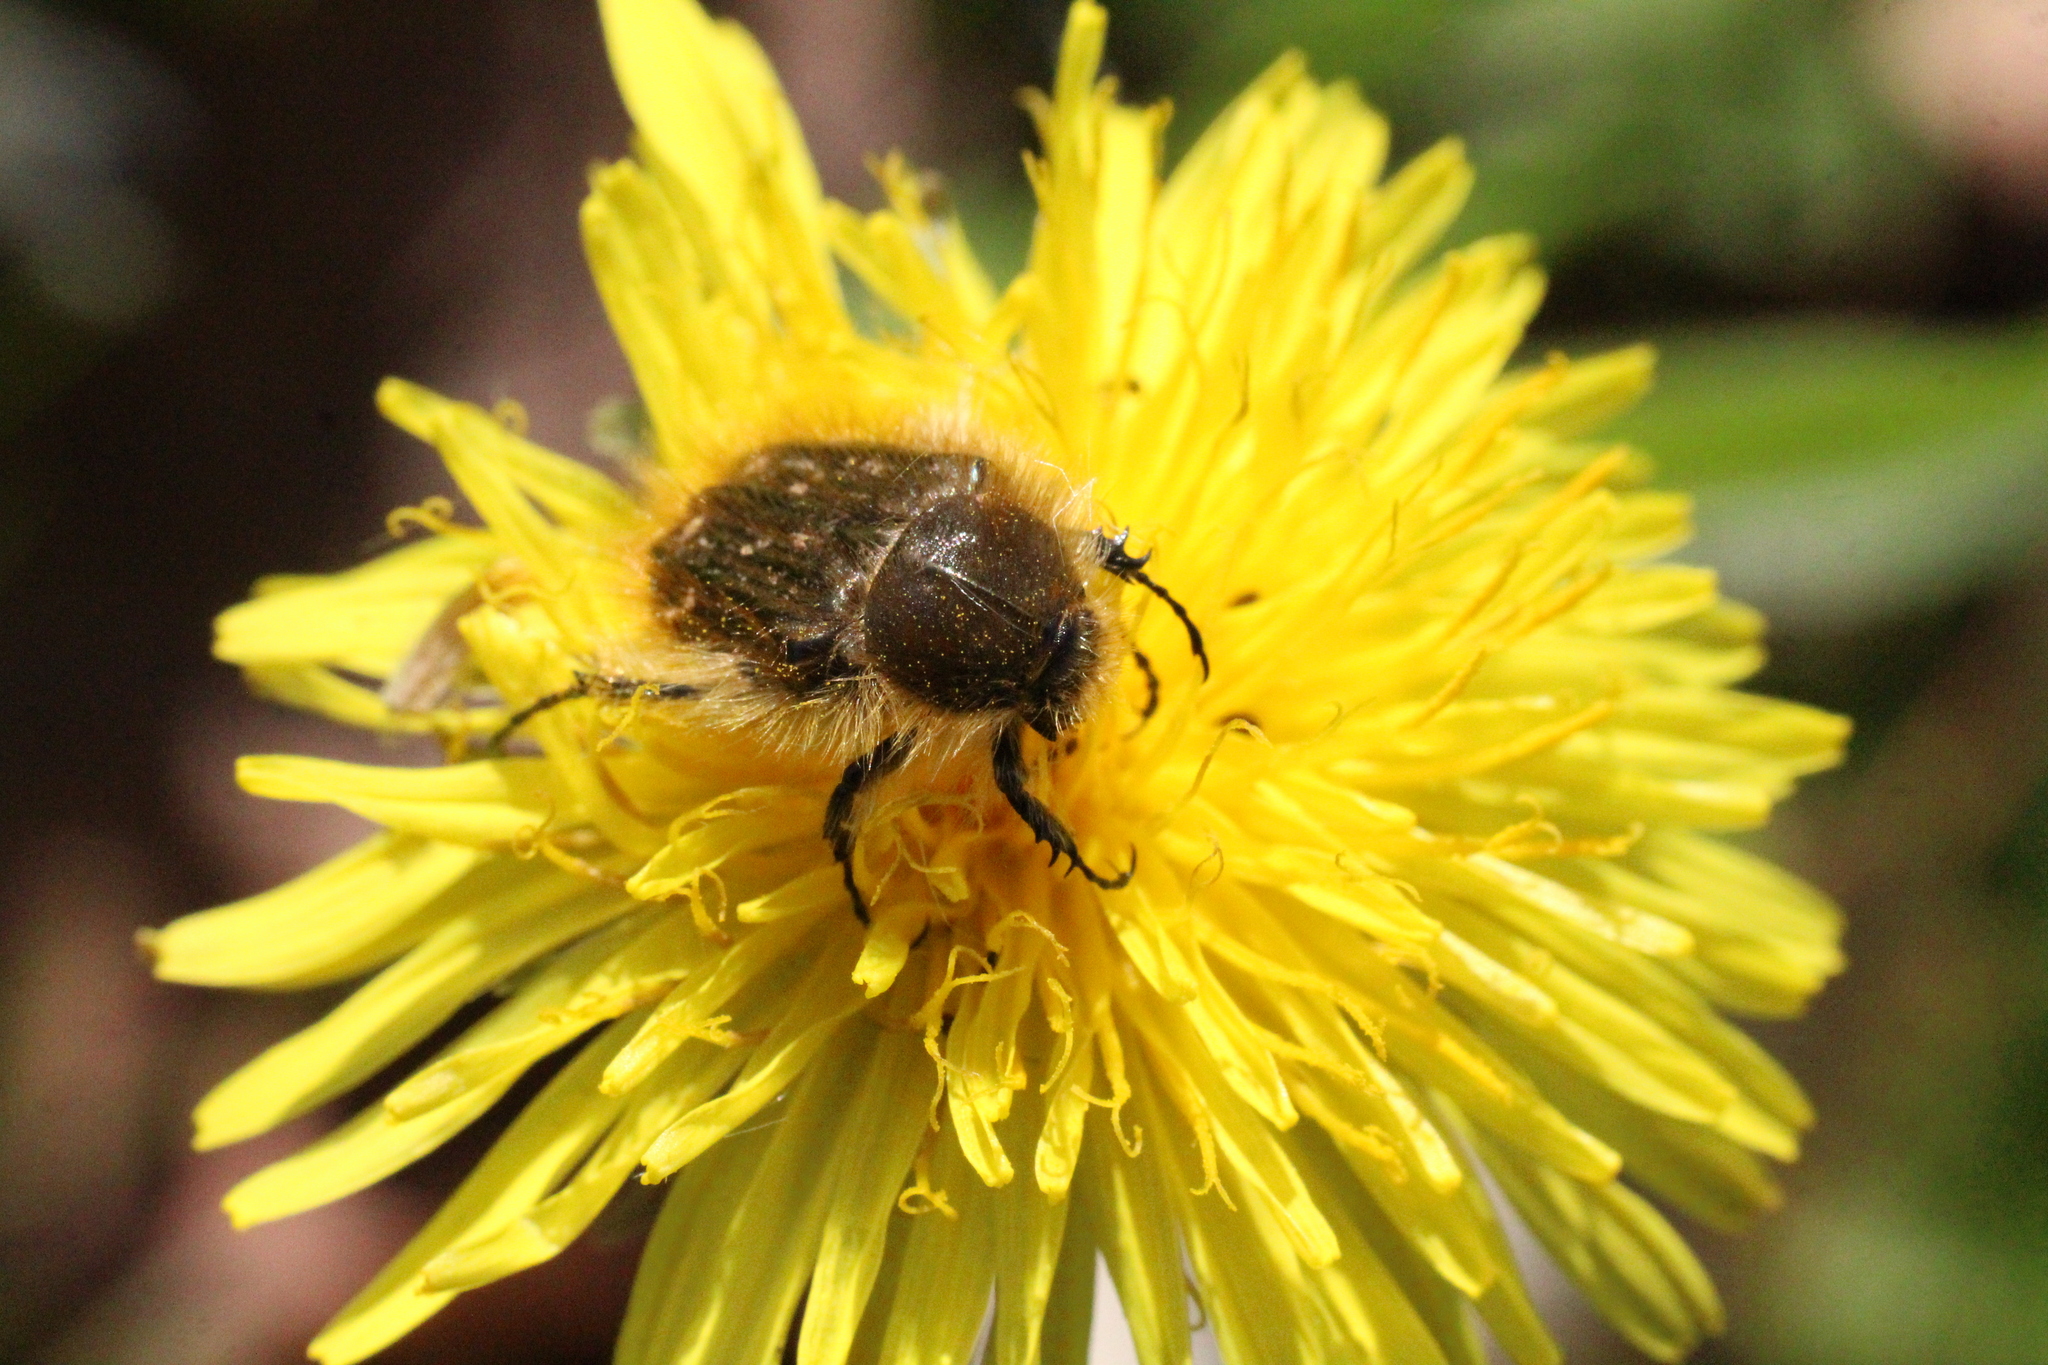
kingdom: Animalia
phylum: Arthropoda
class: Insecta
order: Coleoptera
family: Scarabaeidae
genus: Tropinota
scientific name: Tropinota squalida
